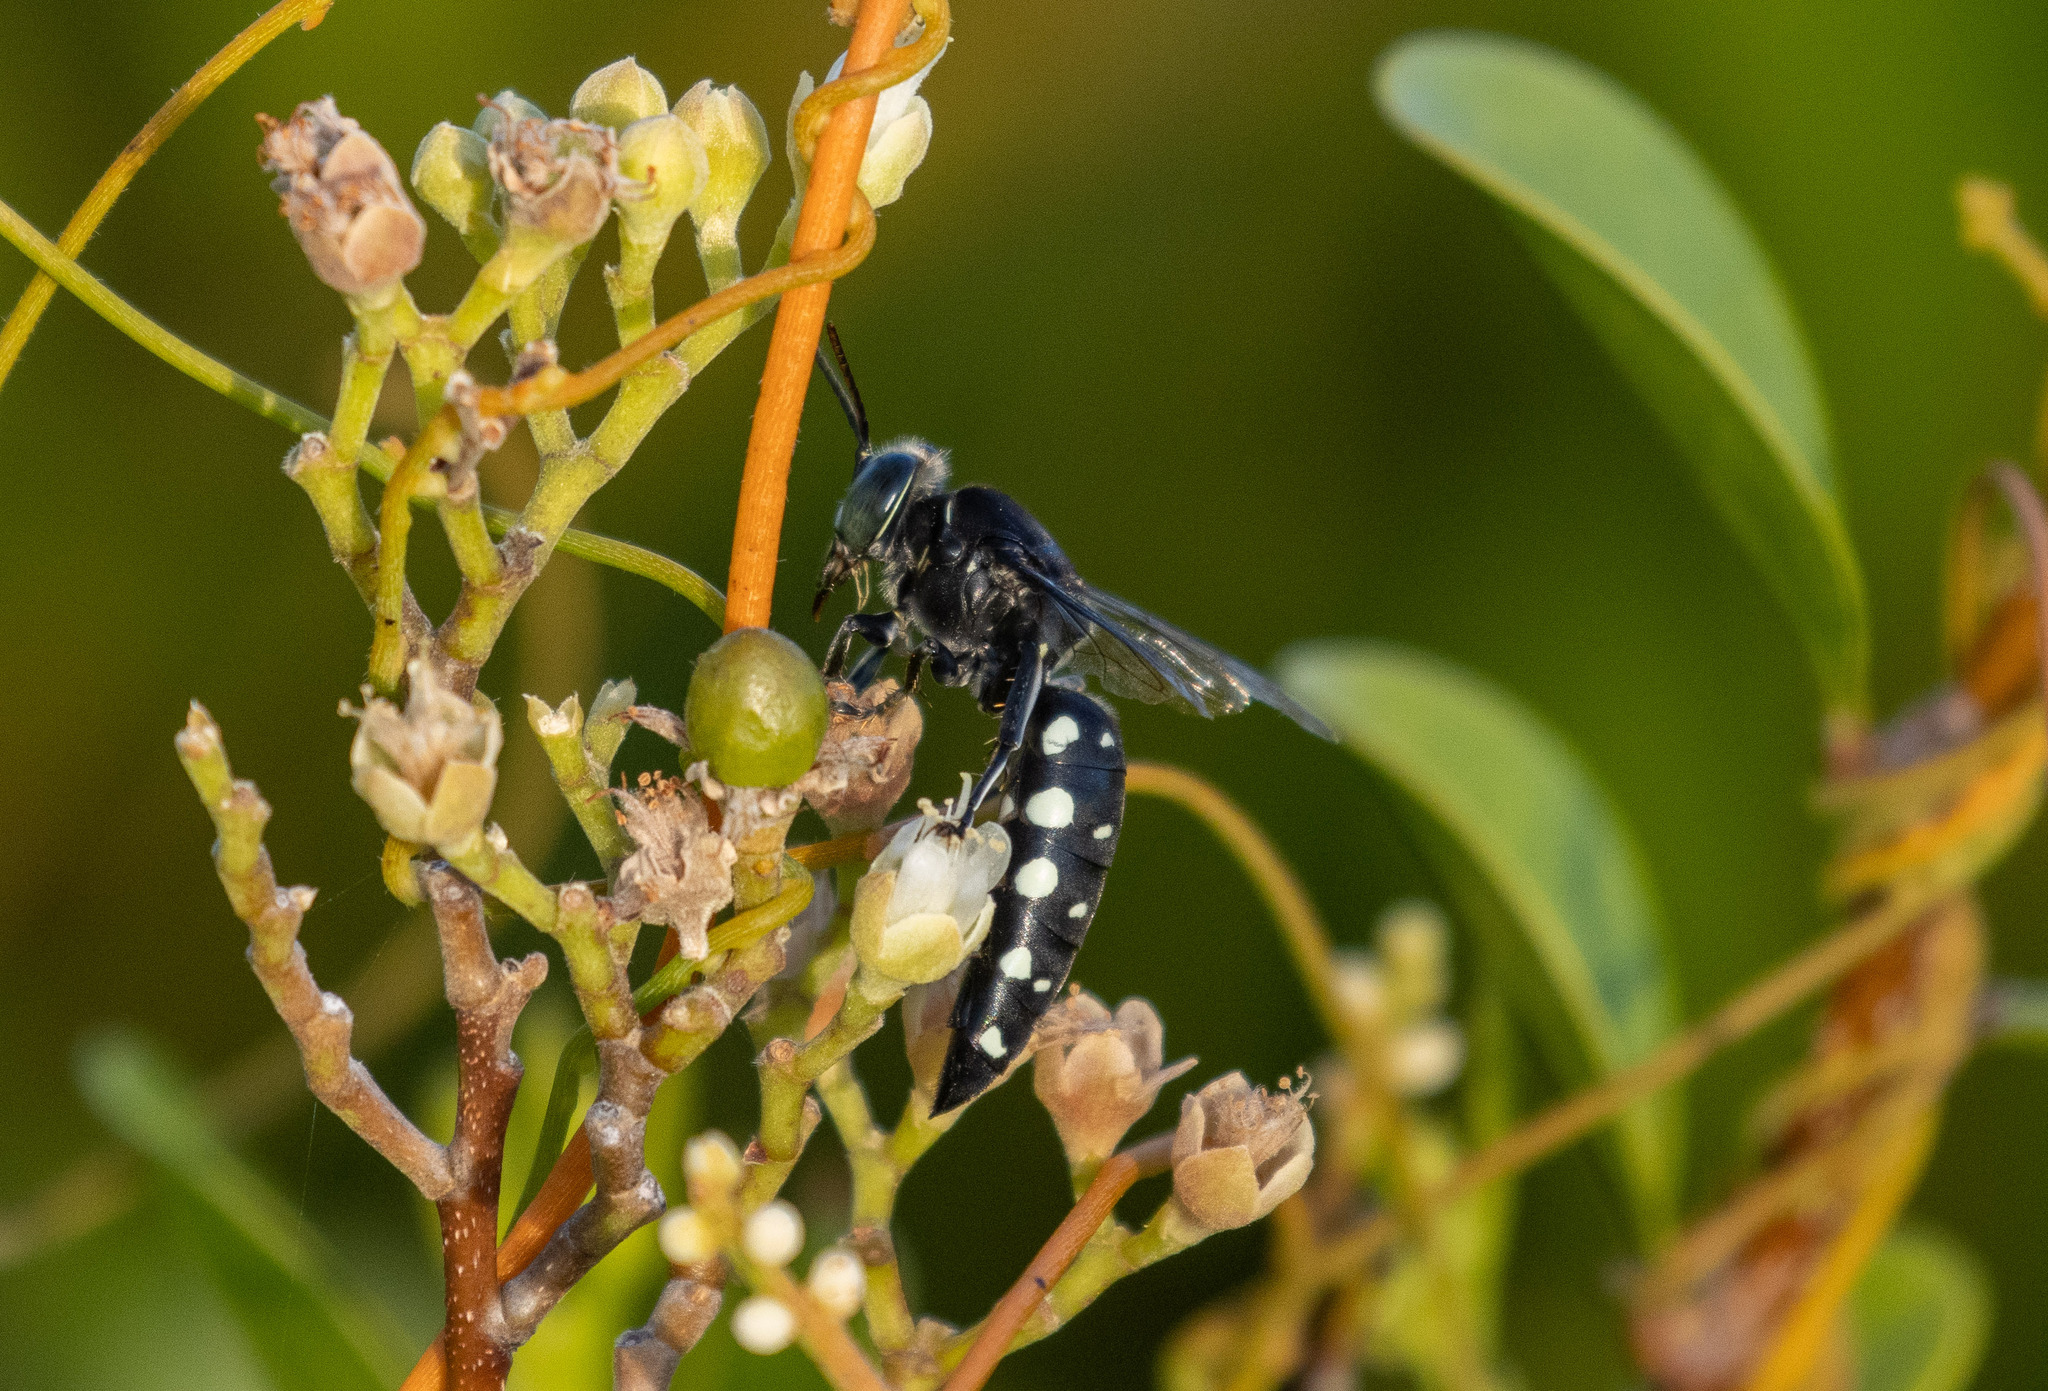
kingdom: Animalia
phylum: Arthropoda
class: Insecta
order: Hymenoptera
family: Crabronidae
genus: Stictia
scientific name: Stictia punctata
